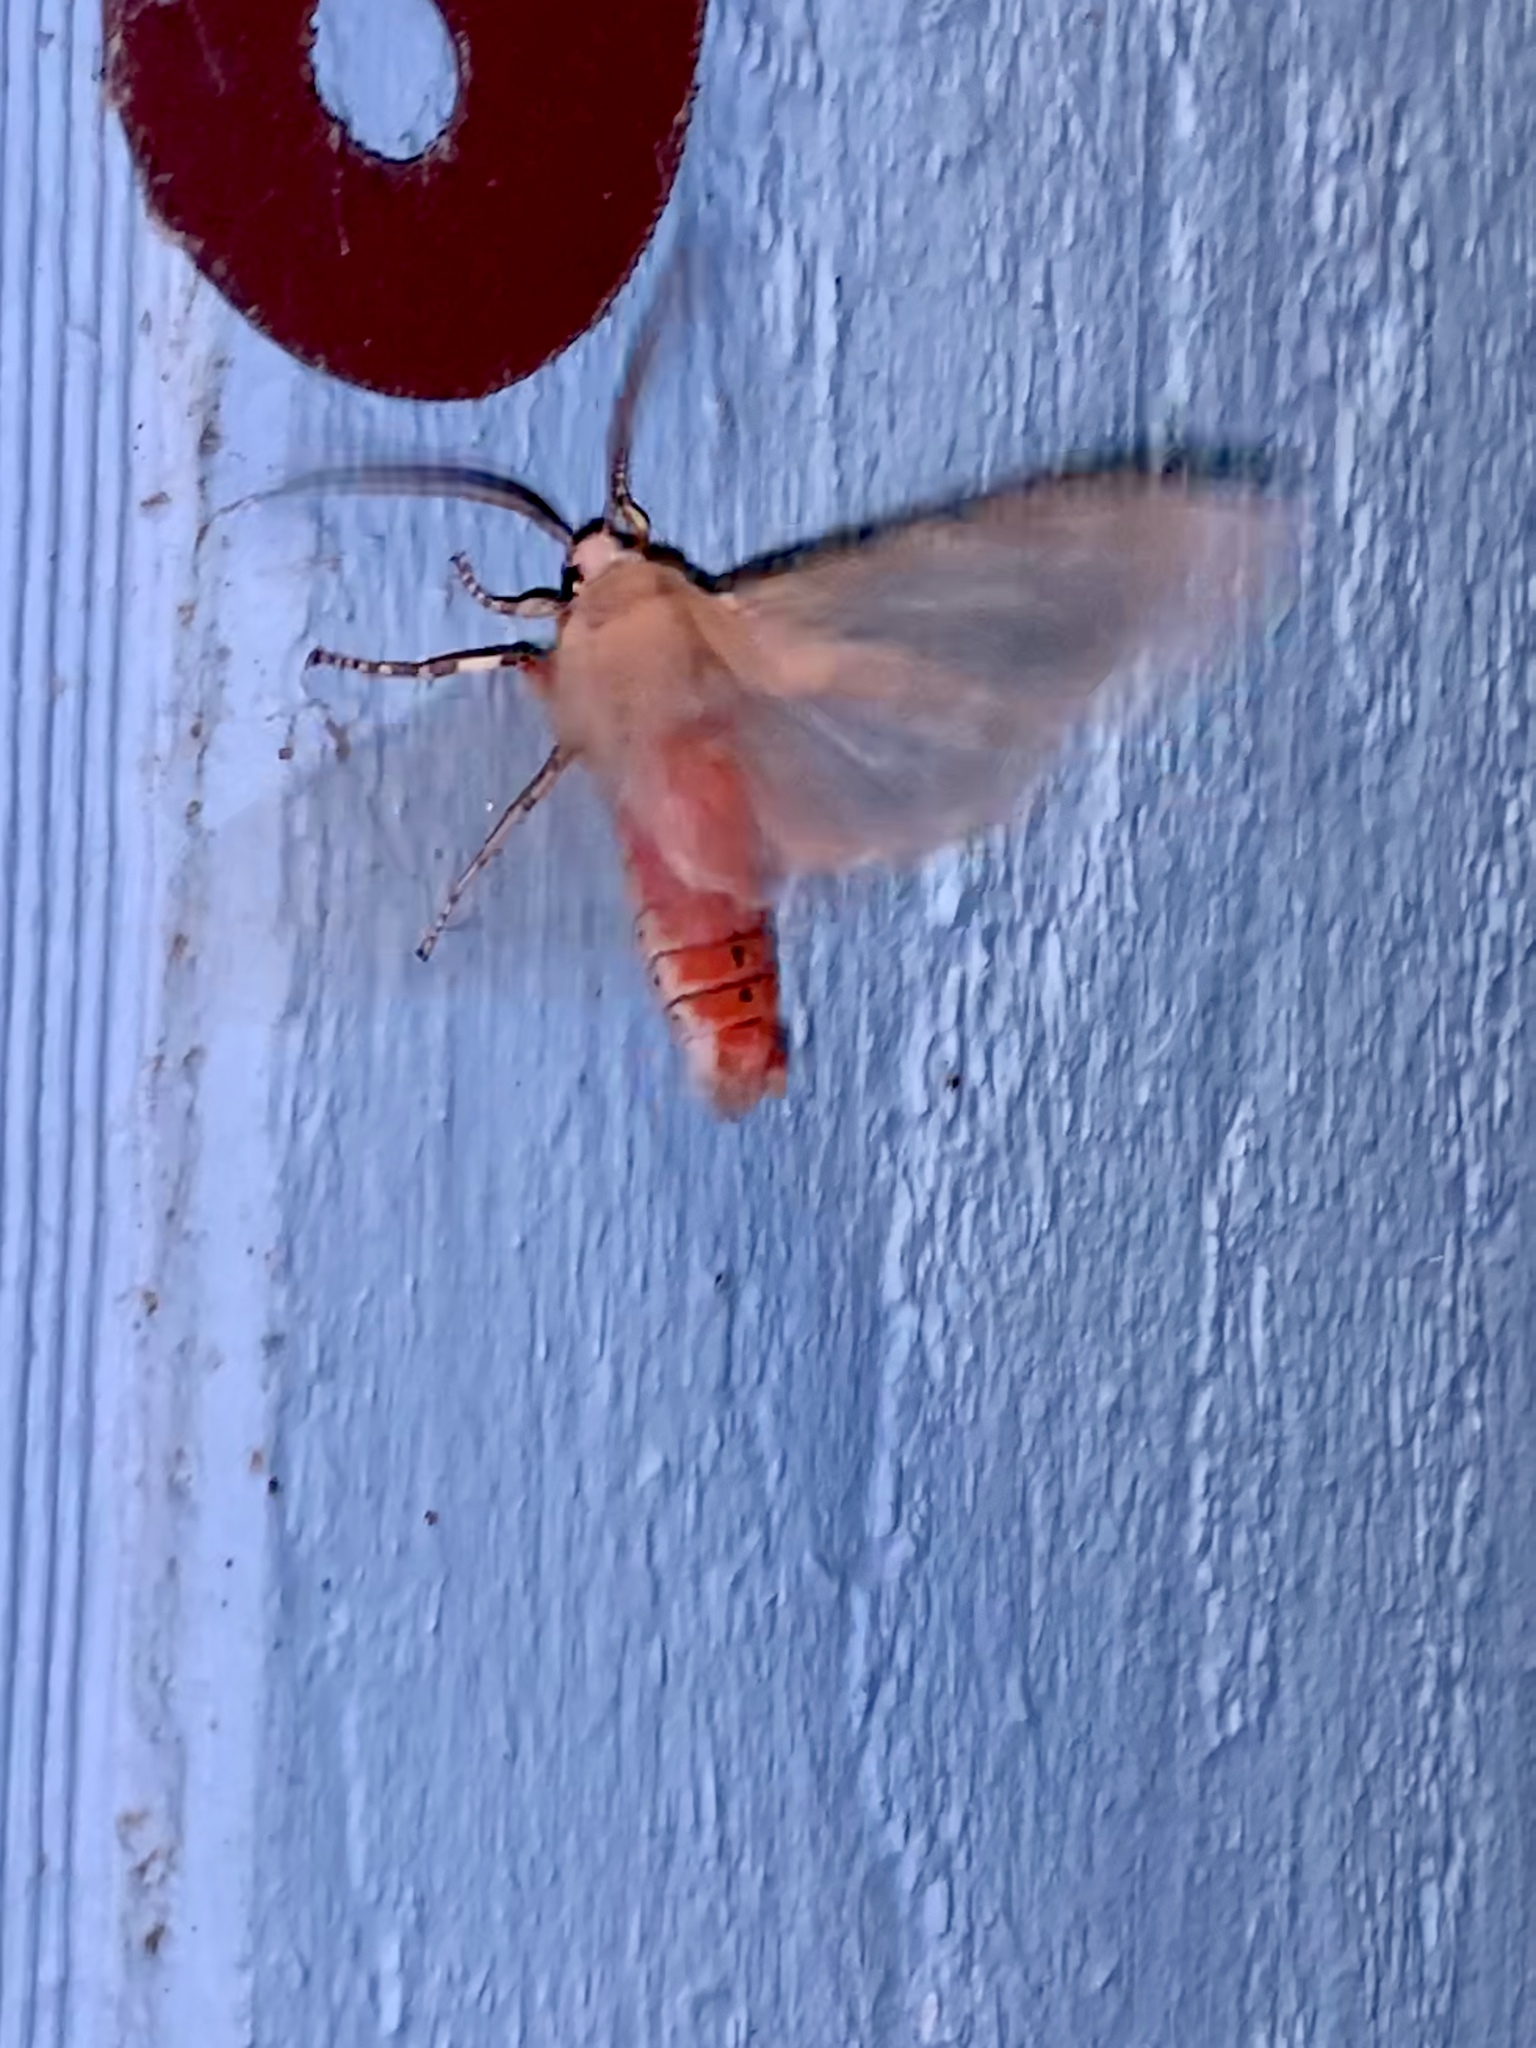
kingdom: Animalia
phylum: Arthropoda
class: Insecta
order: Lepidoptera
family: Erebidae
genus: Hemihyalea
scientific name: Hemihyalea edwardsii
